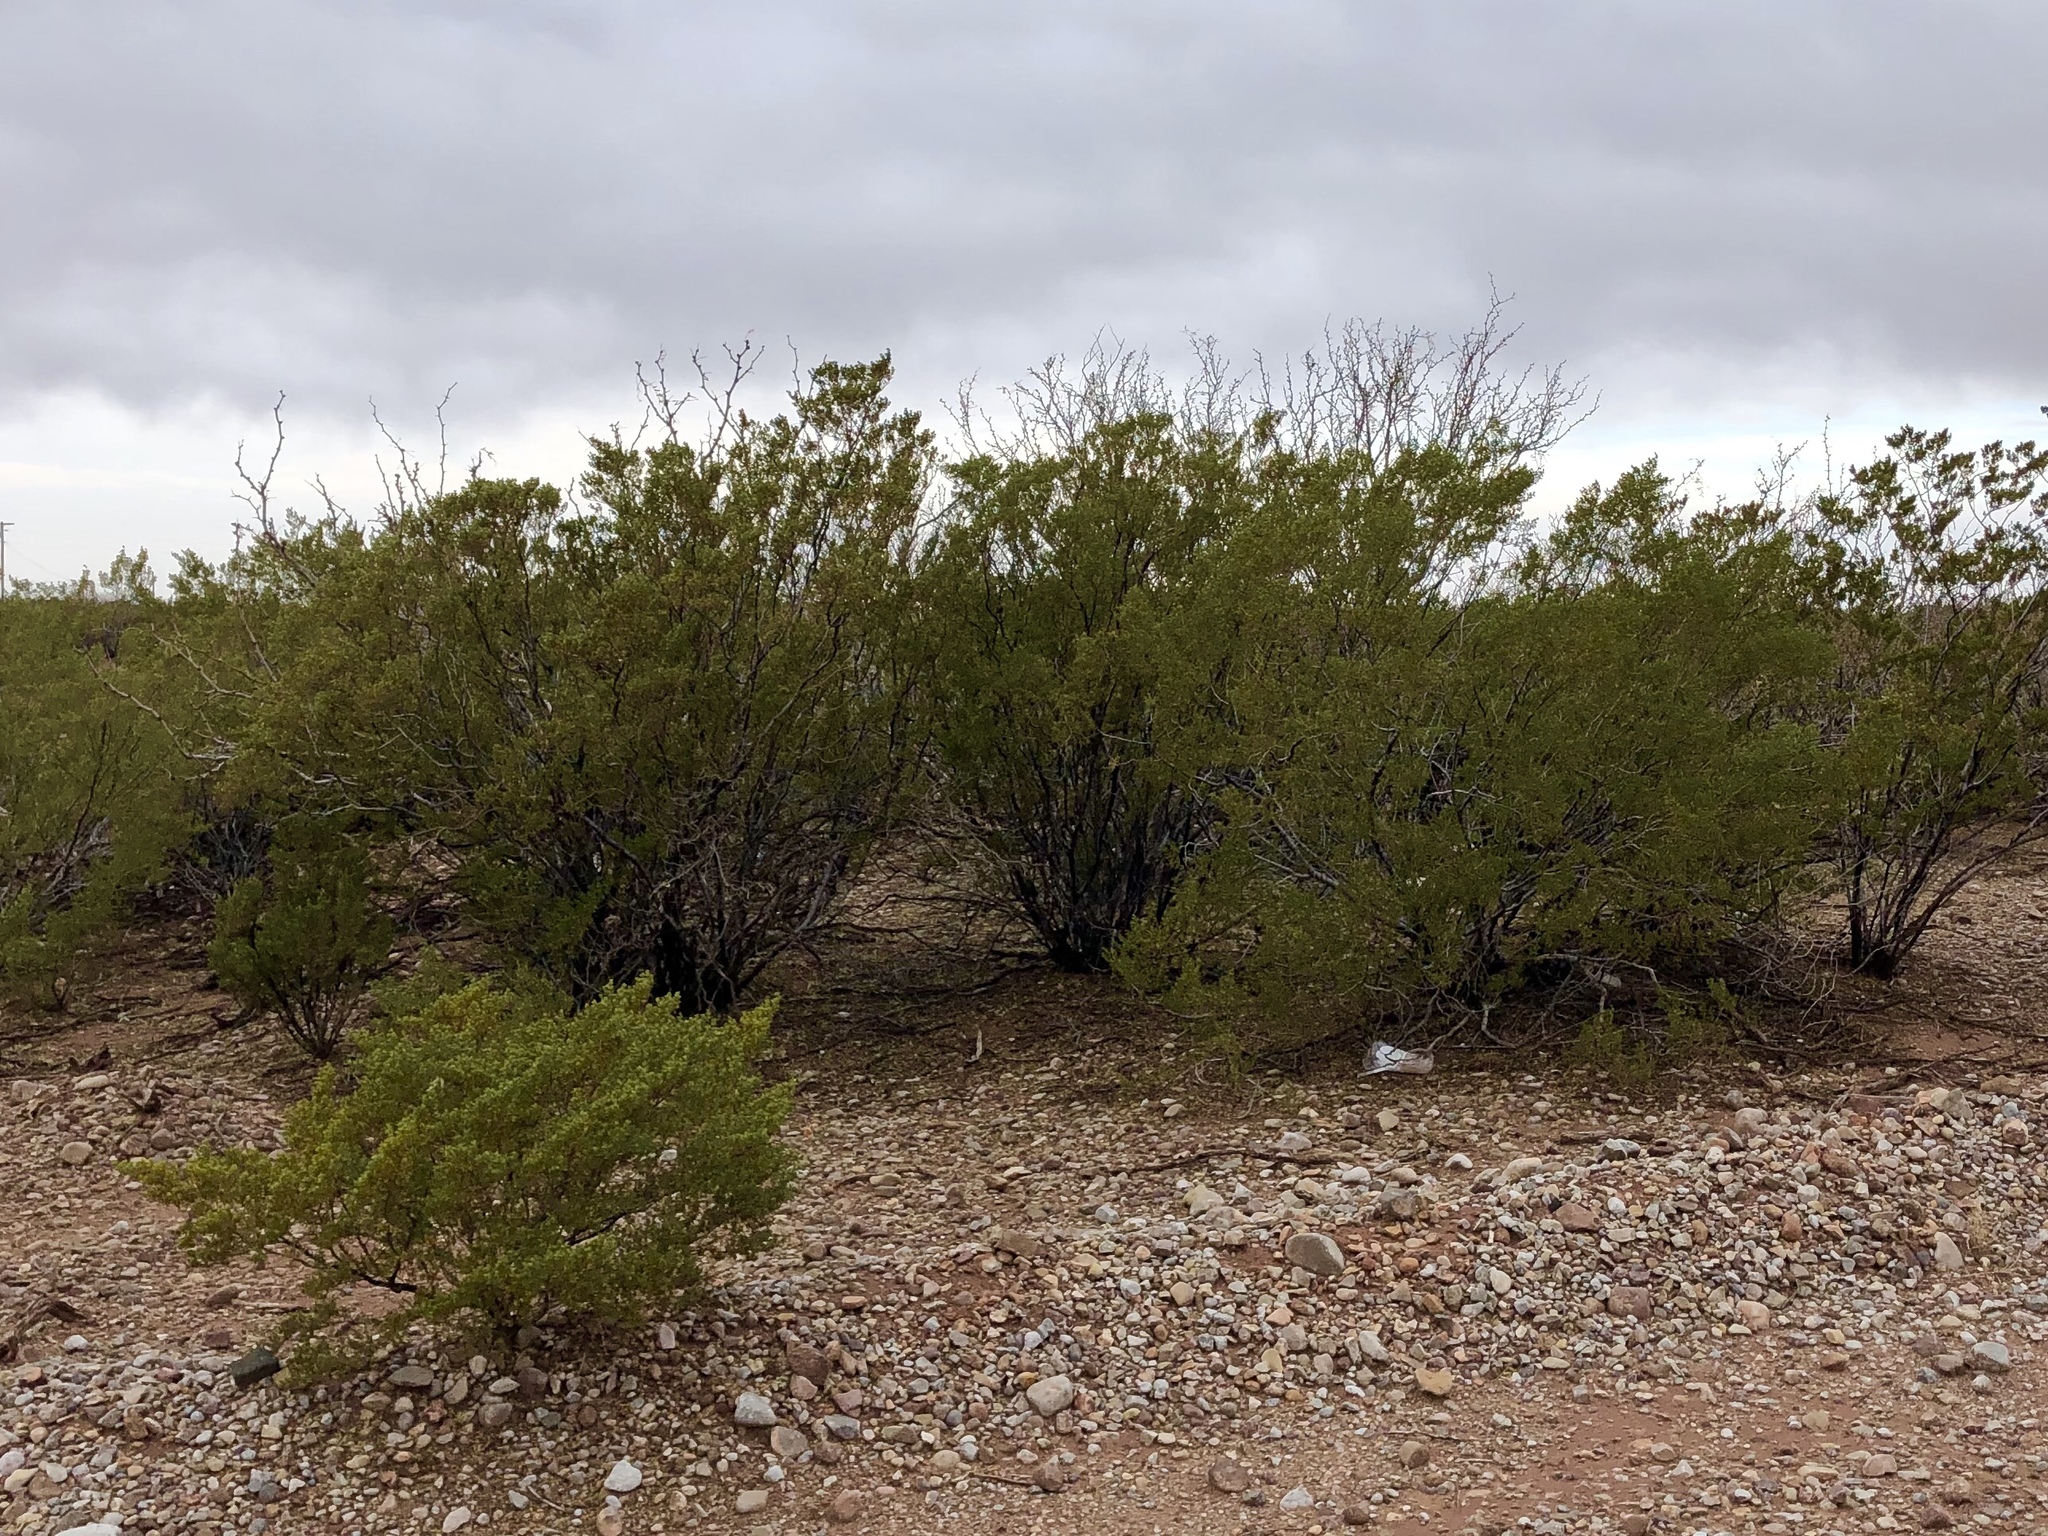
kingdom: Plantae
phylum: Tracheophyta
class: Magnoliopsida
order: Zygophyllales
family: Zygophyllaceae
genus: Larrea
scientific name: Larrea tridentata
